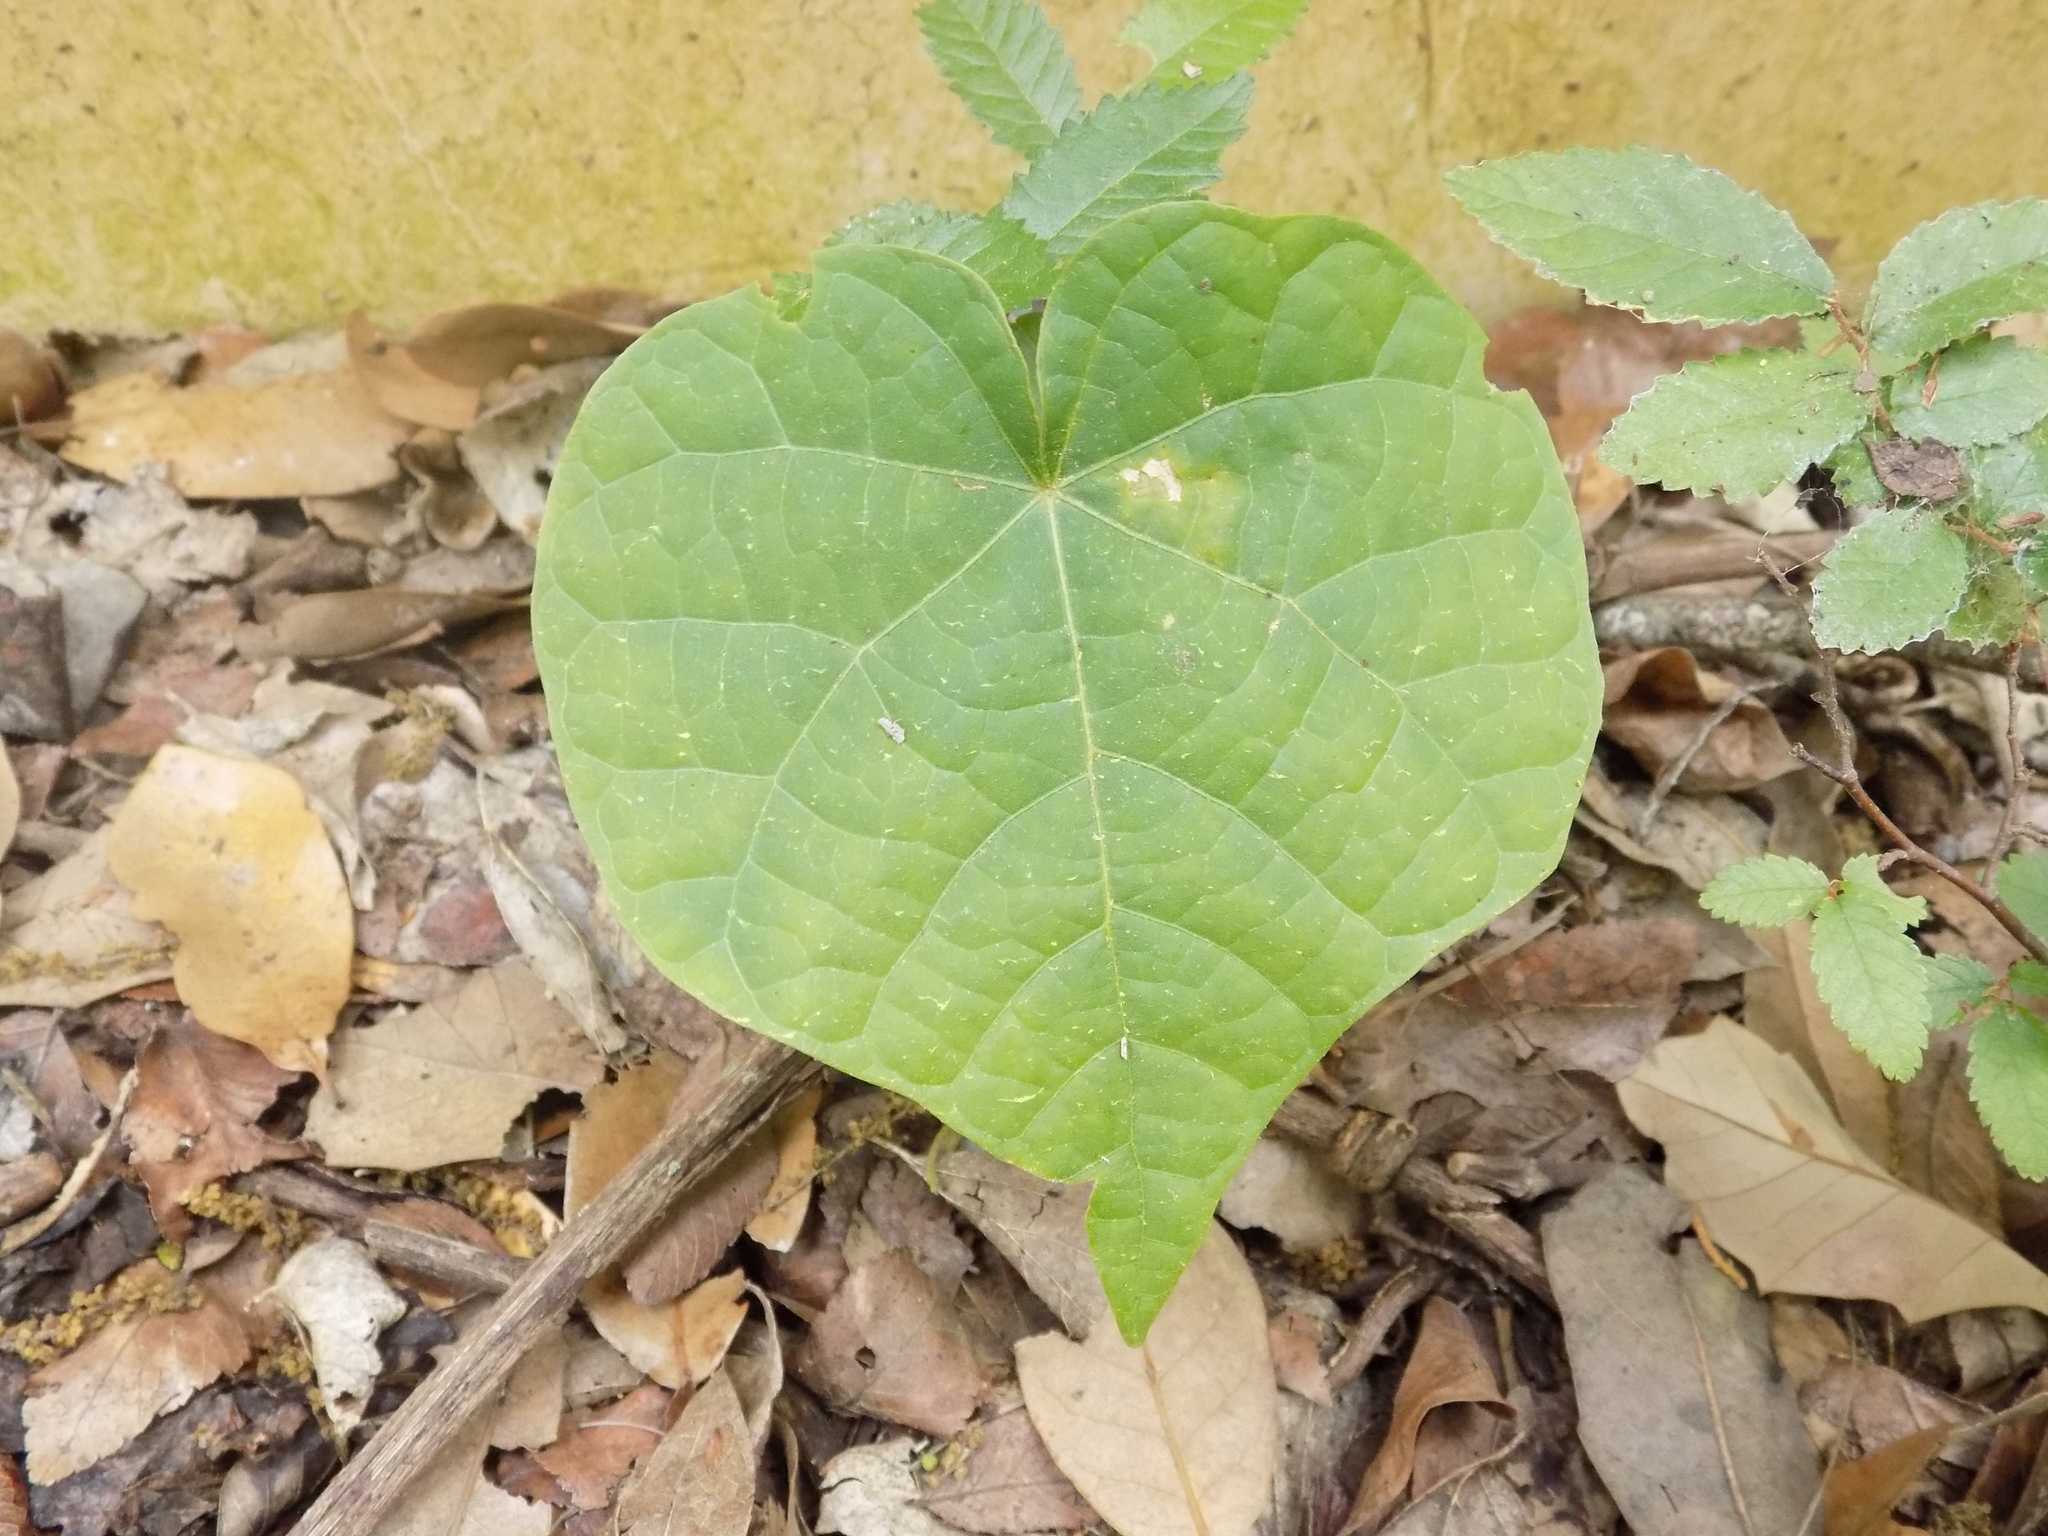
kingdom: Plantae
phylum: Tracheophyta
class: Magnoliopsida
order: Fabales
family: Fabaceae
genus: Cercis
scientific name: Cercis canadensis
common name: Eastern redbud
